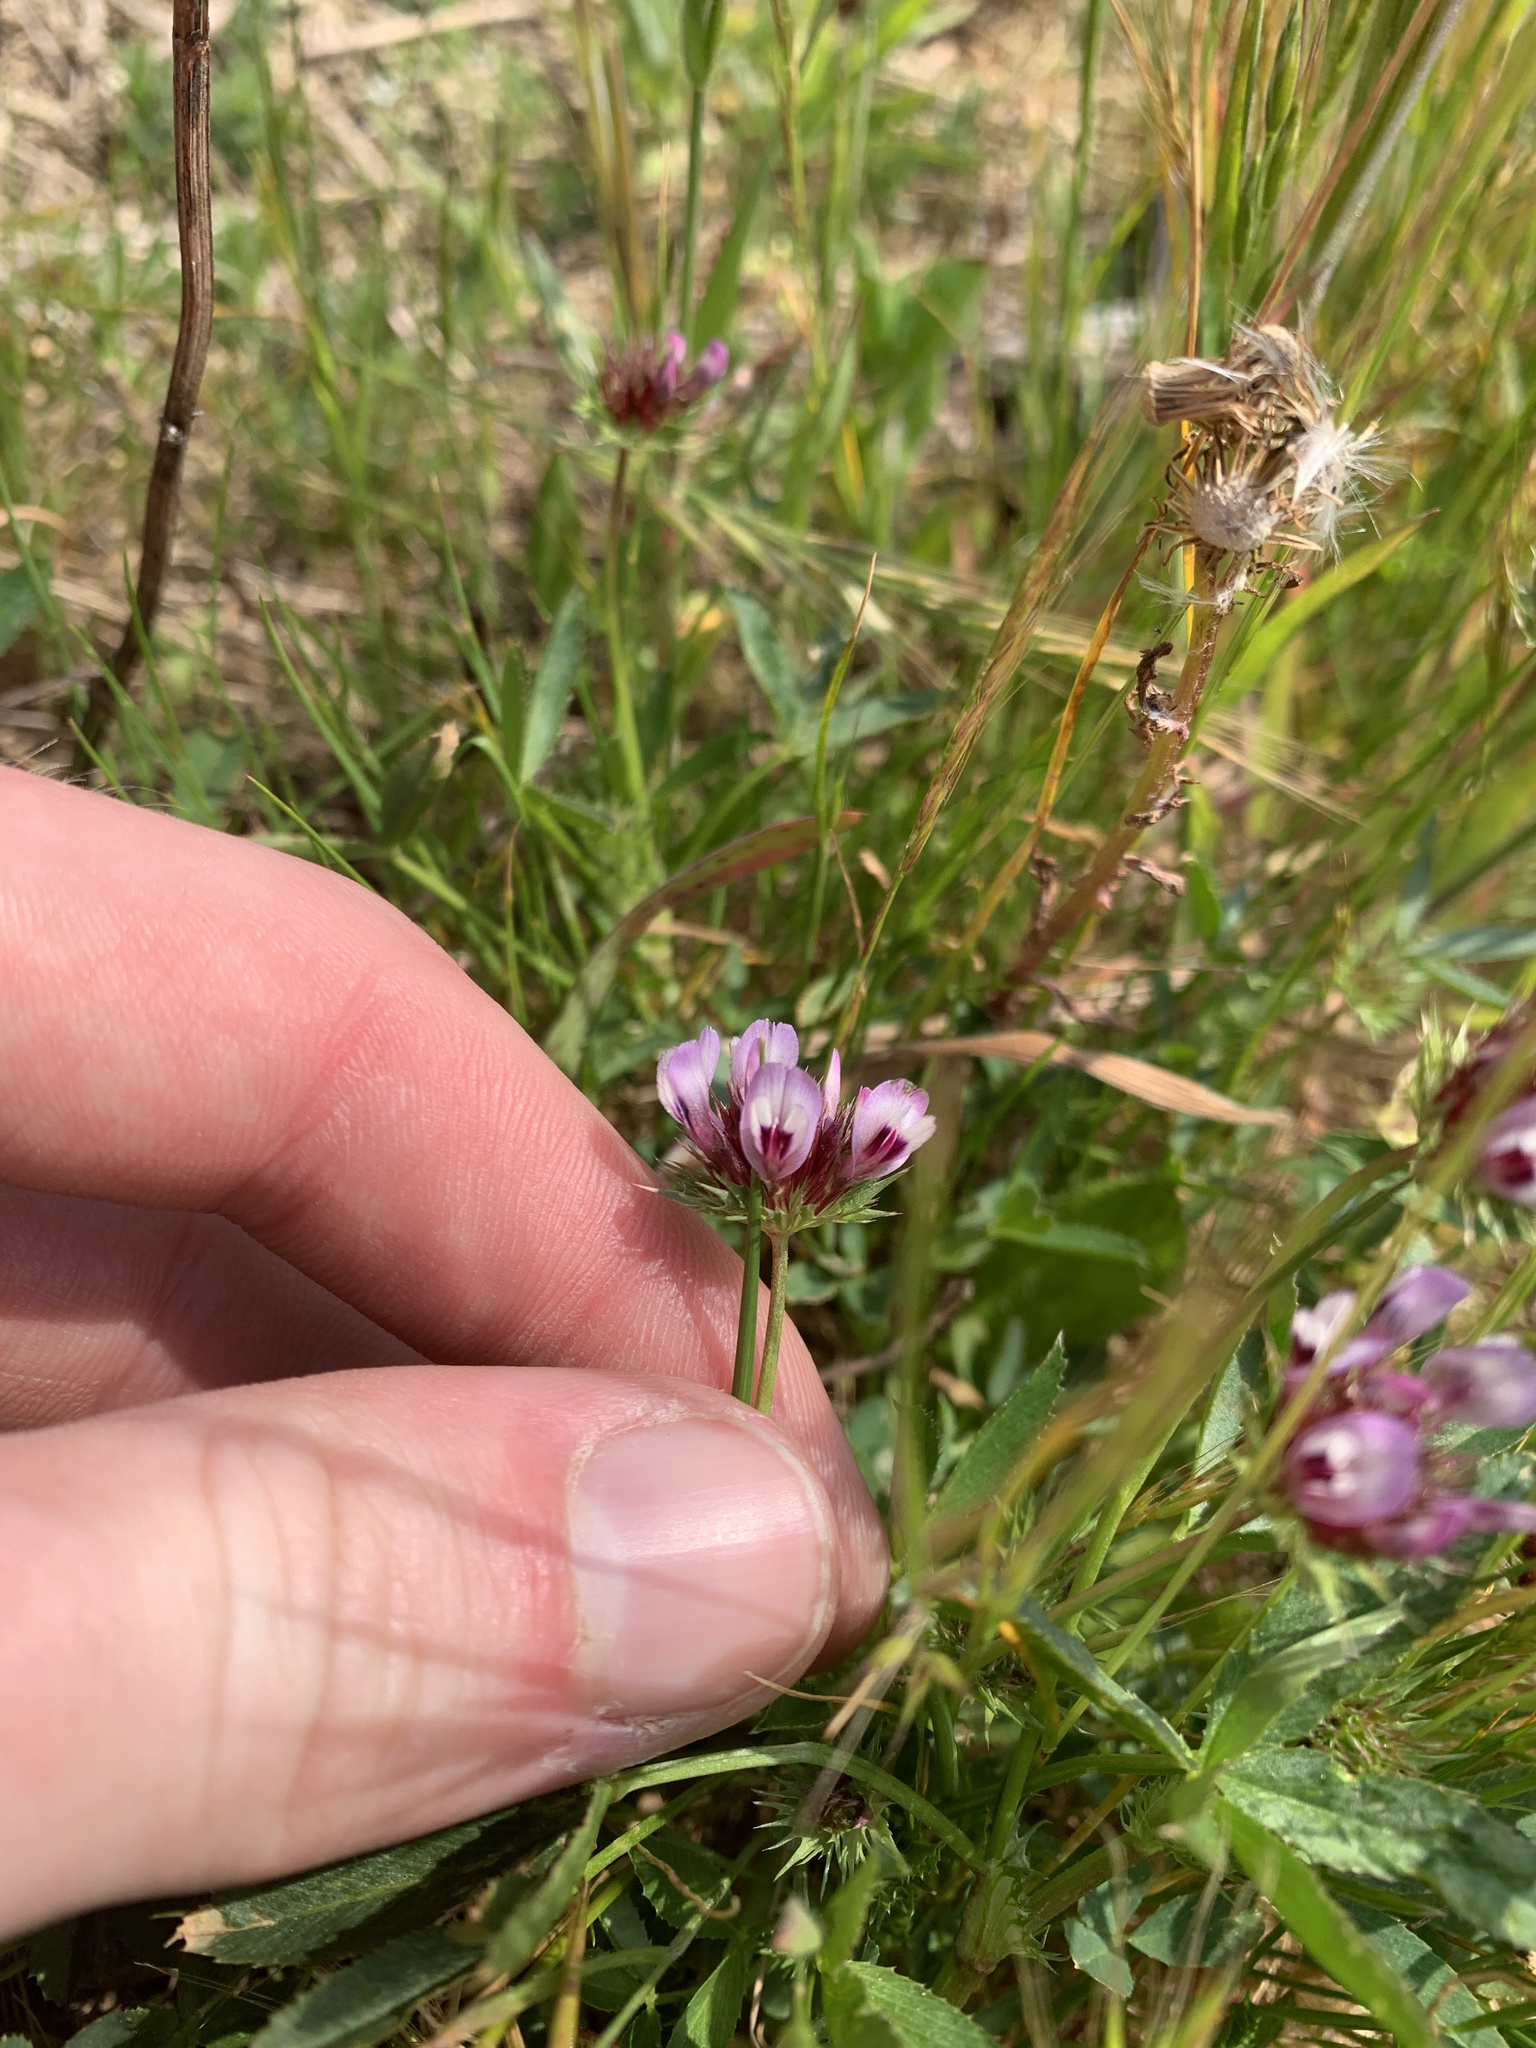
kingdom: Plantae
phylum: Tracheophyta
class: Magnoliopsida
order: Fabales
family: Fabaceae
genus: Trifolium
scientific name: Trifolium willdenovii
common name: Tomcat clover
